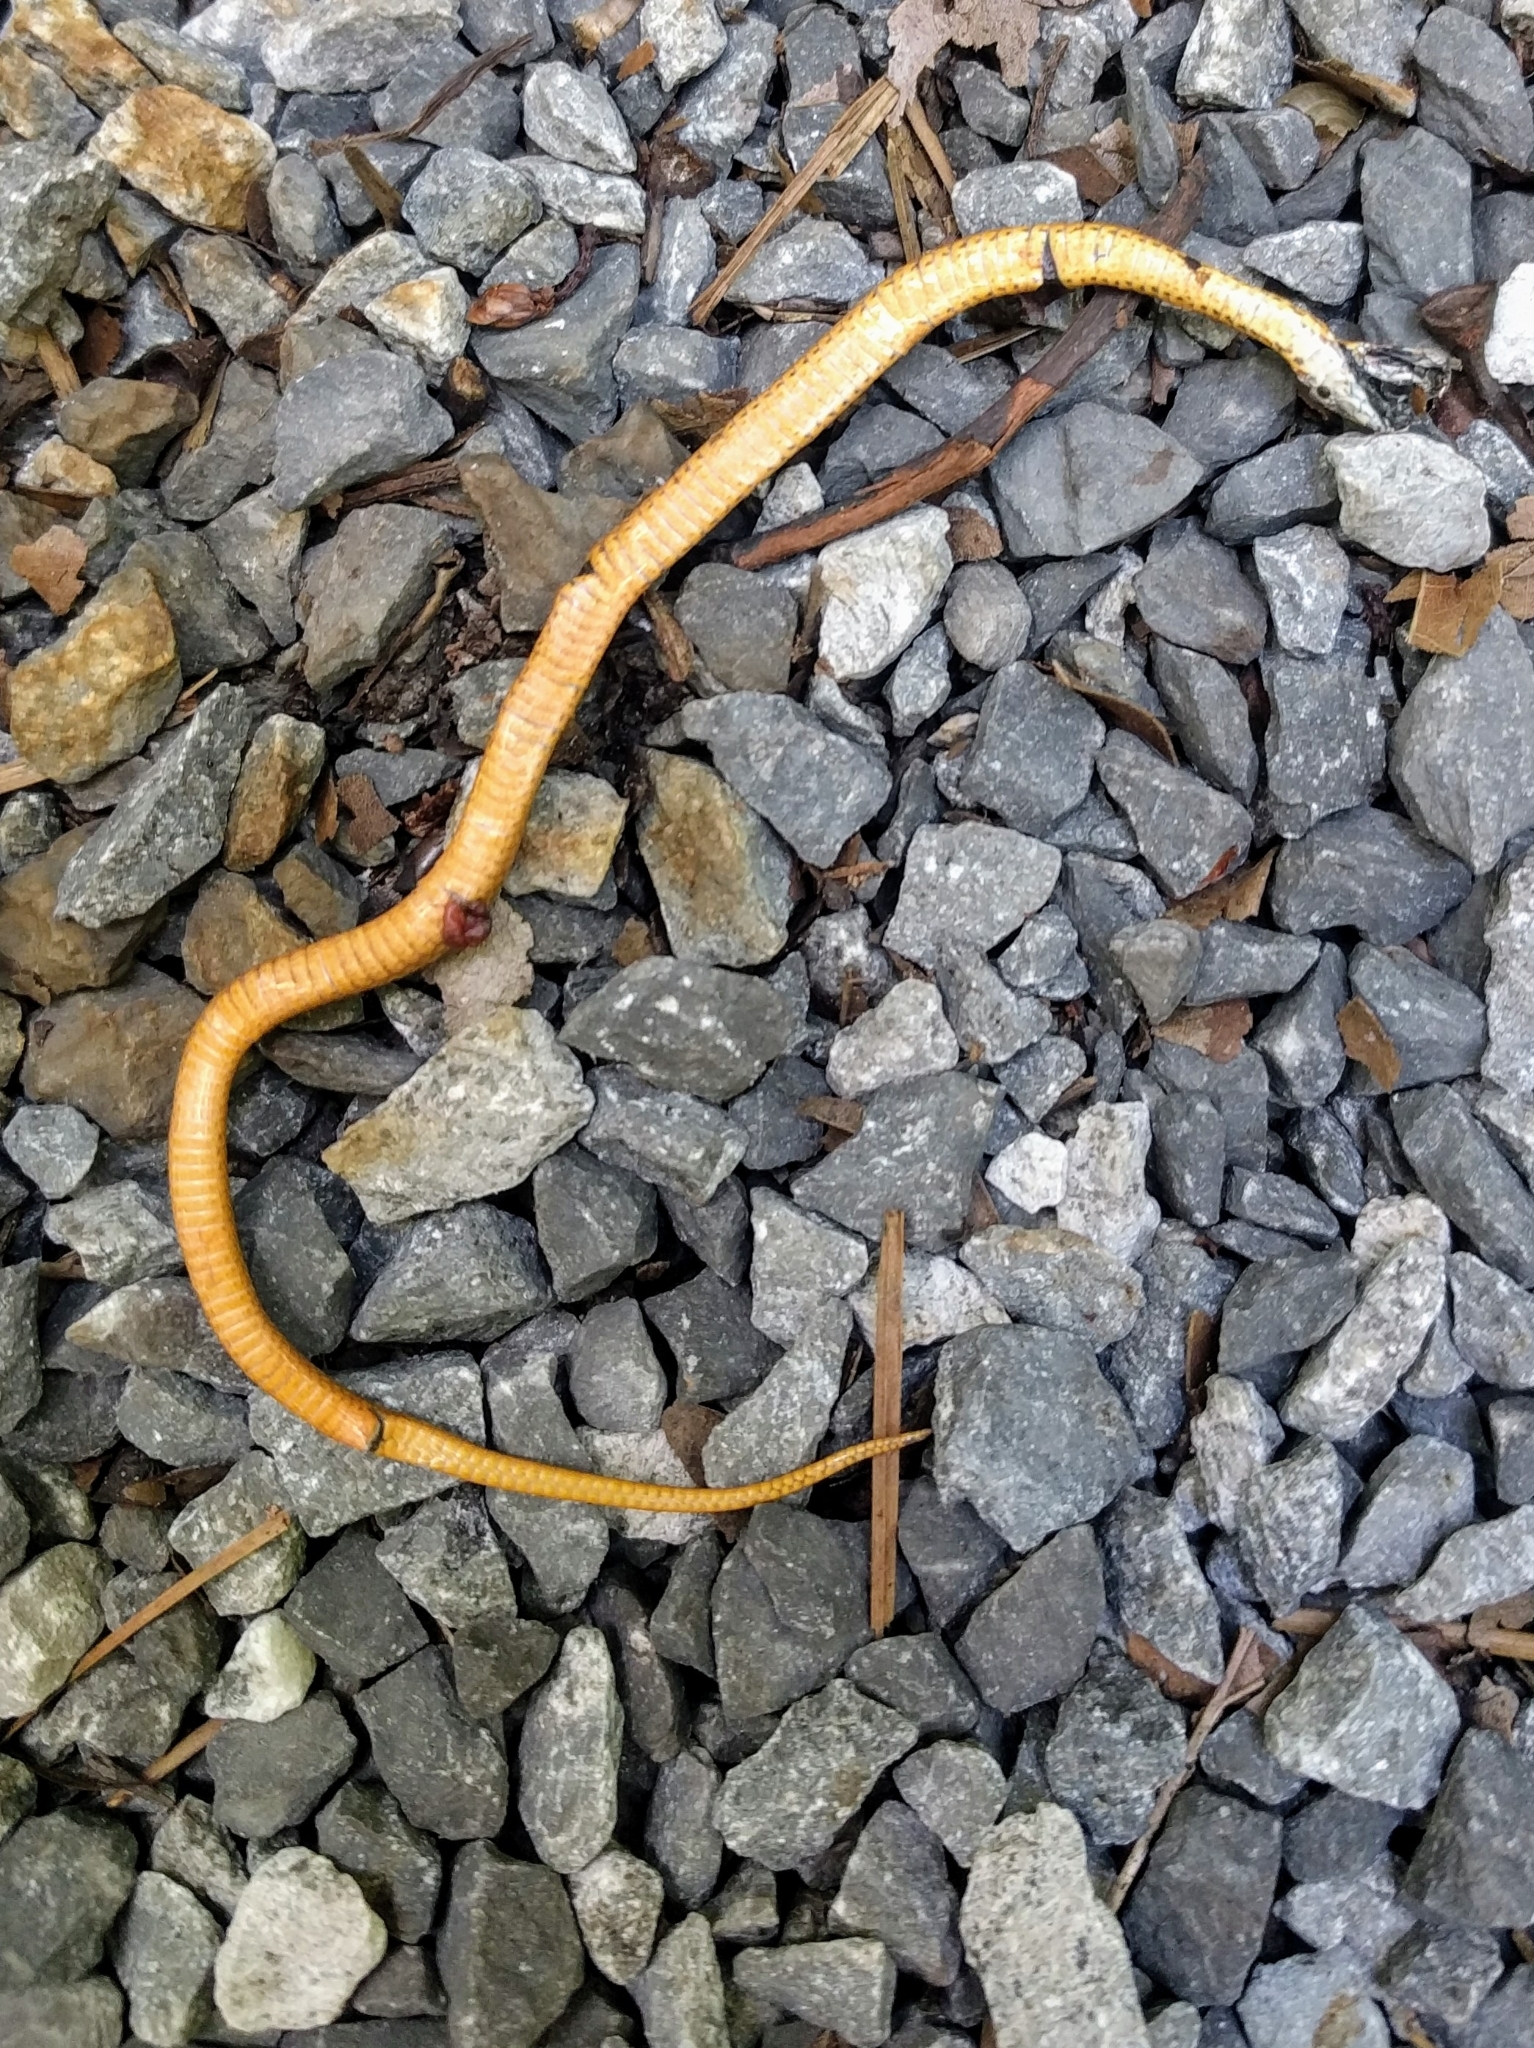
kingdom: Animalia
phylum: Chordata
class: Squamata
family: Colubridae
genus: Storeria
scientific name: Storeria occipitomaculata
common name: Redbelly snake
